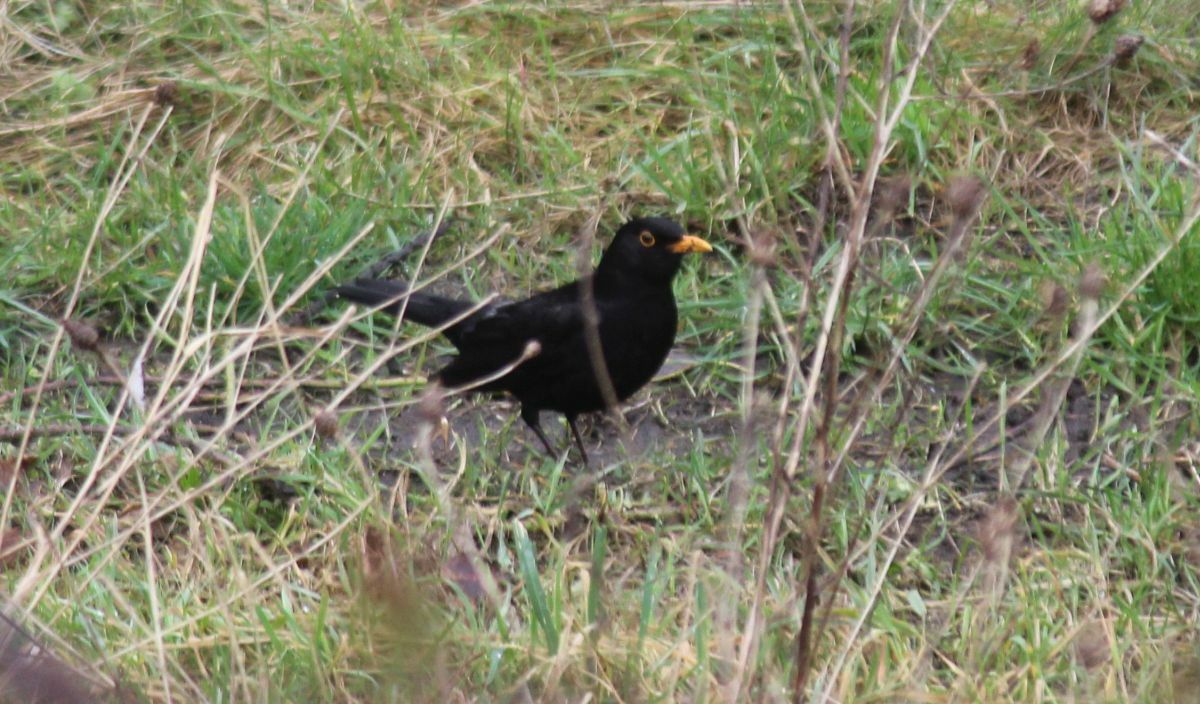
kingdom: Animalia
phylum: Chordata
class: Aves
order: Passeriformes
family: Turdidae
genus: Turdus
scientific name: Turdus merula
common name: Common blackbird
